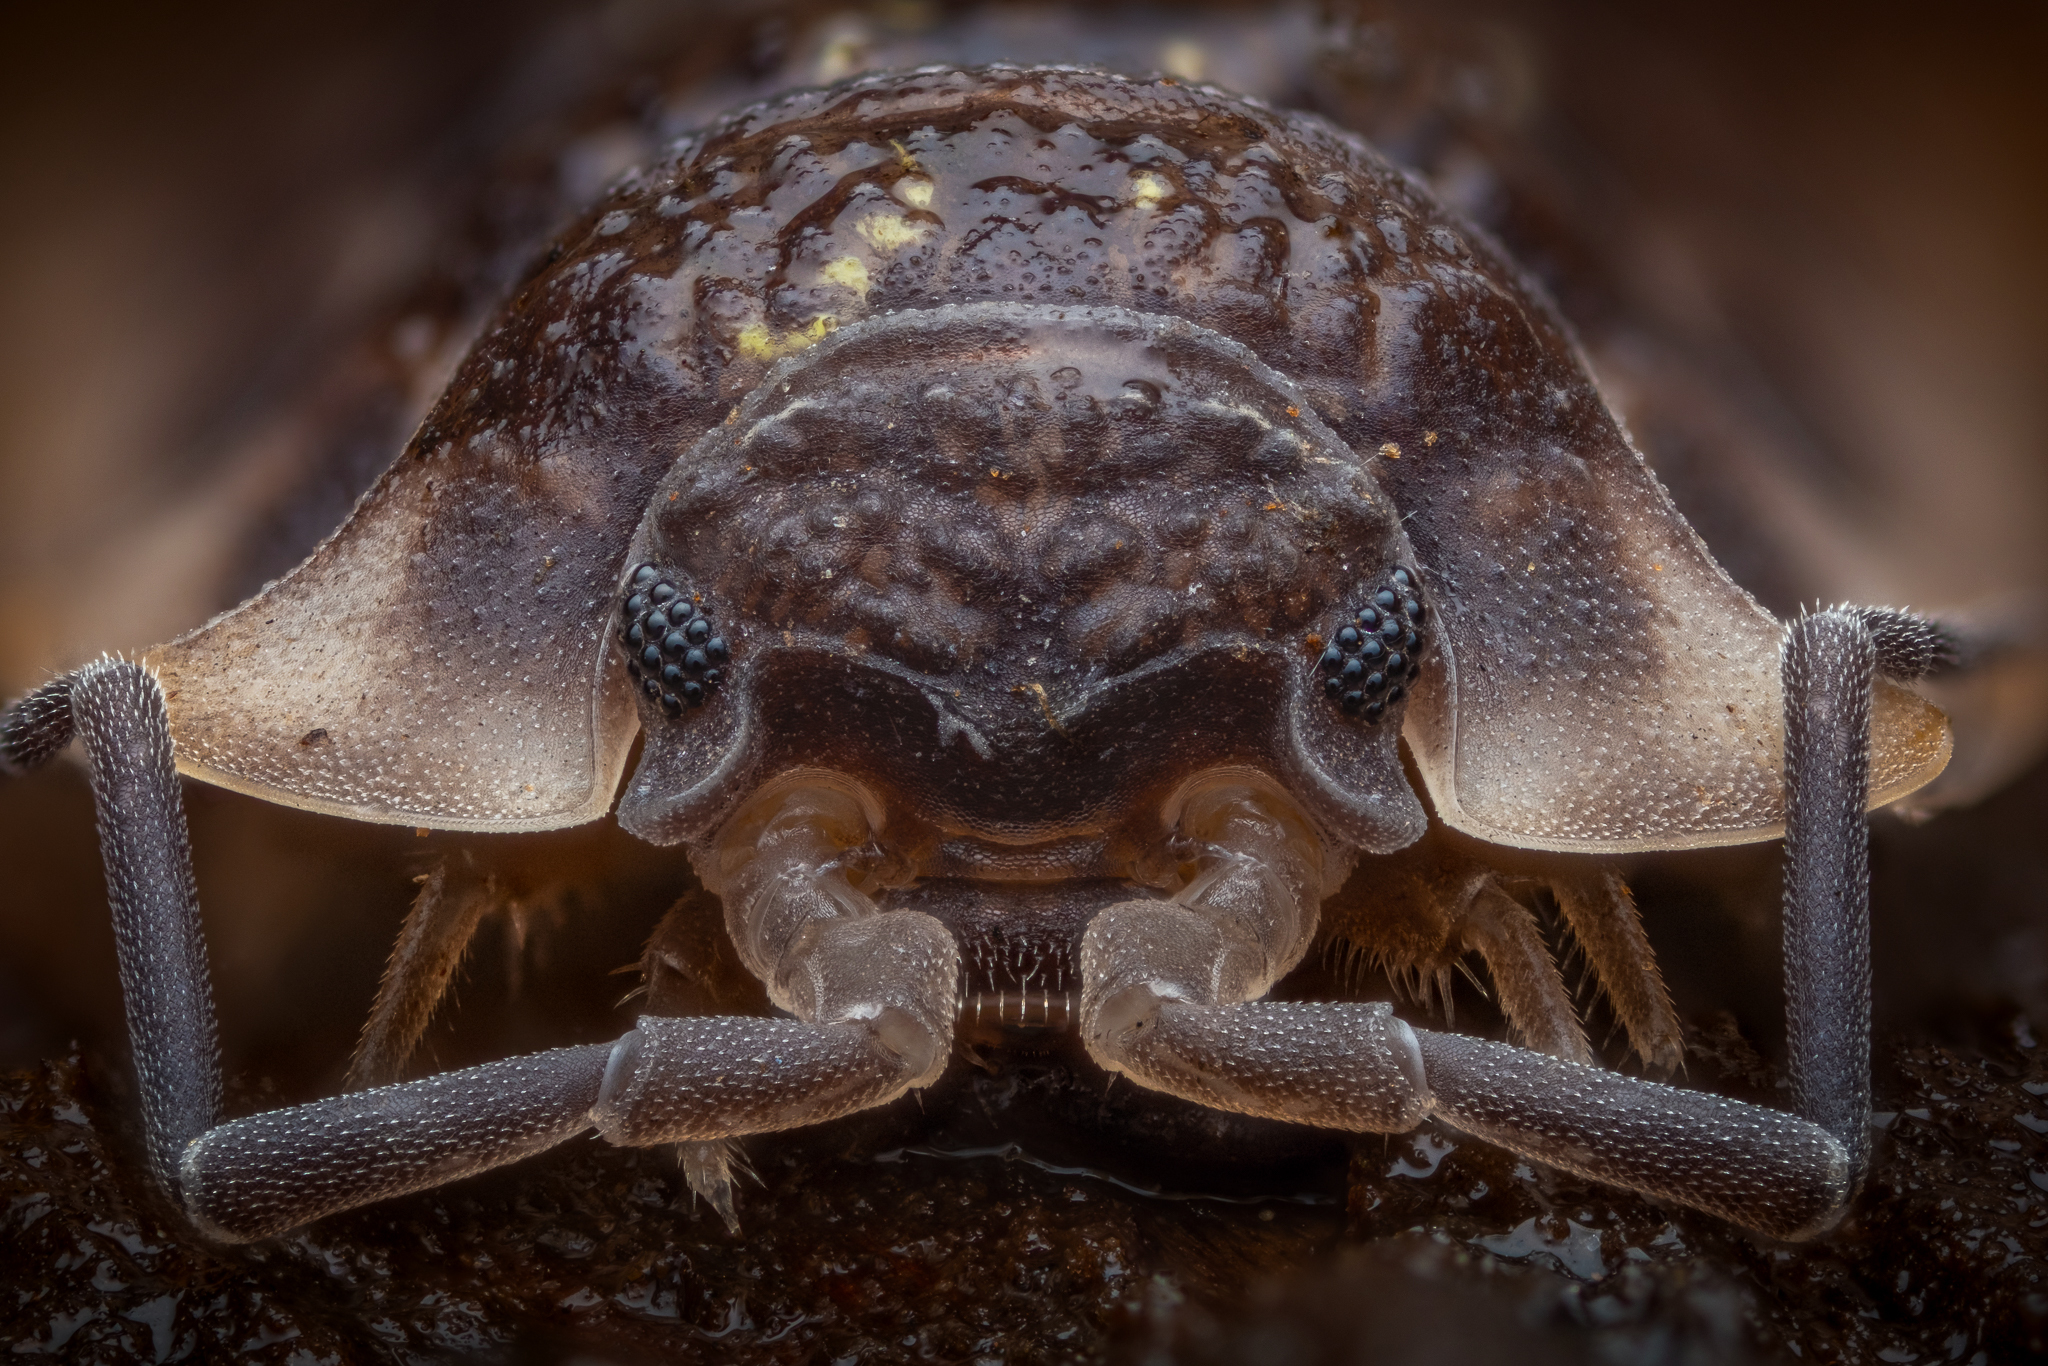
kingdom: Animalia
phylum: Arthropoda
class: Malacostraca
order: Isopoda
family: Oniscidae
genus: Oniscus
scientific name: Oniscus asellus
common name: Common shiny woodlouse
